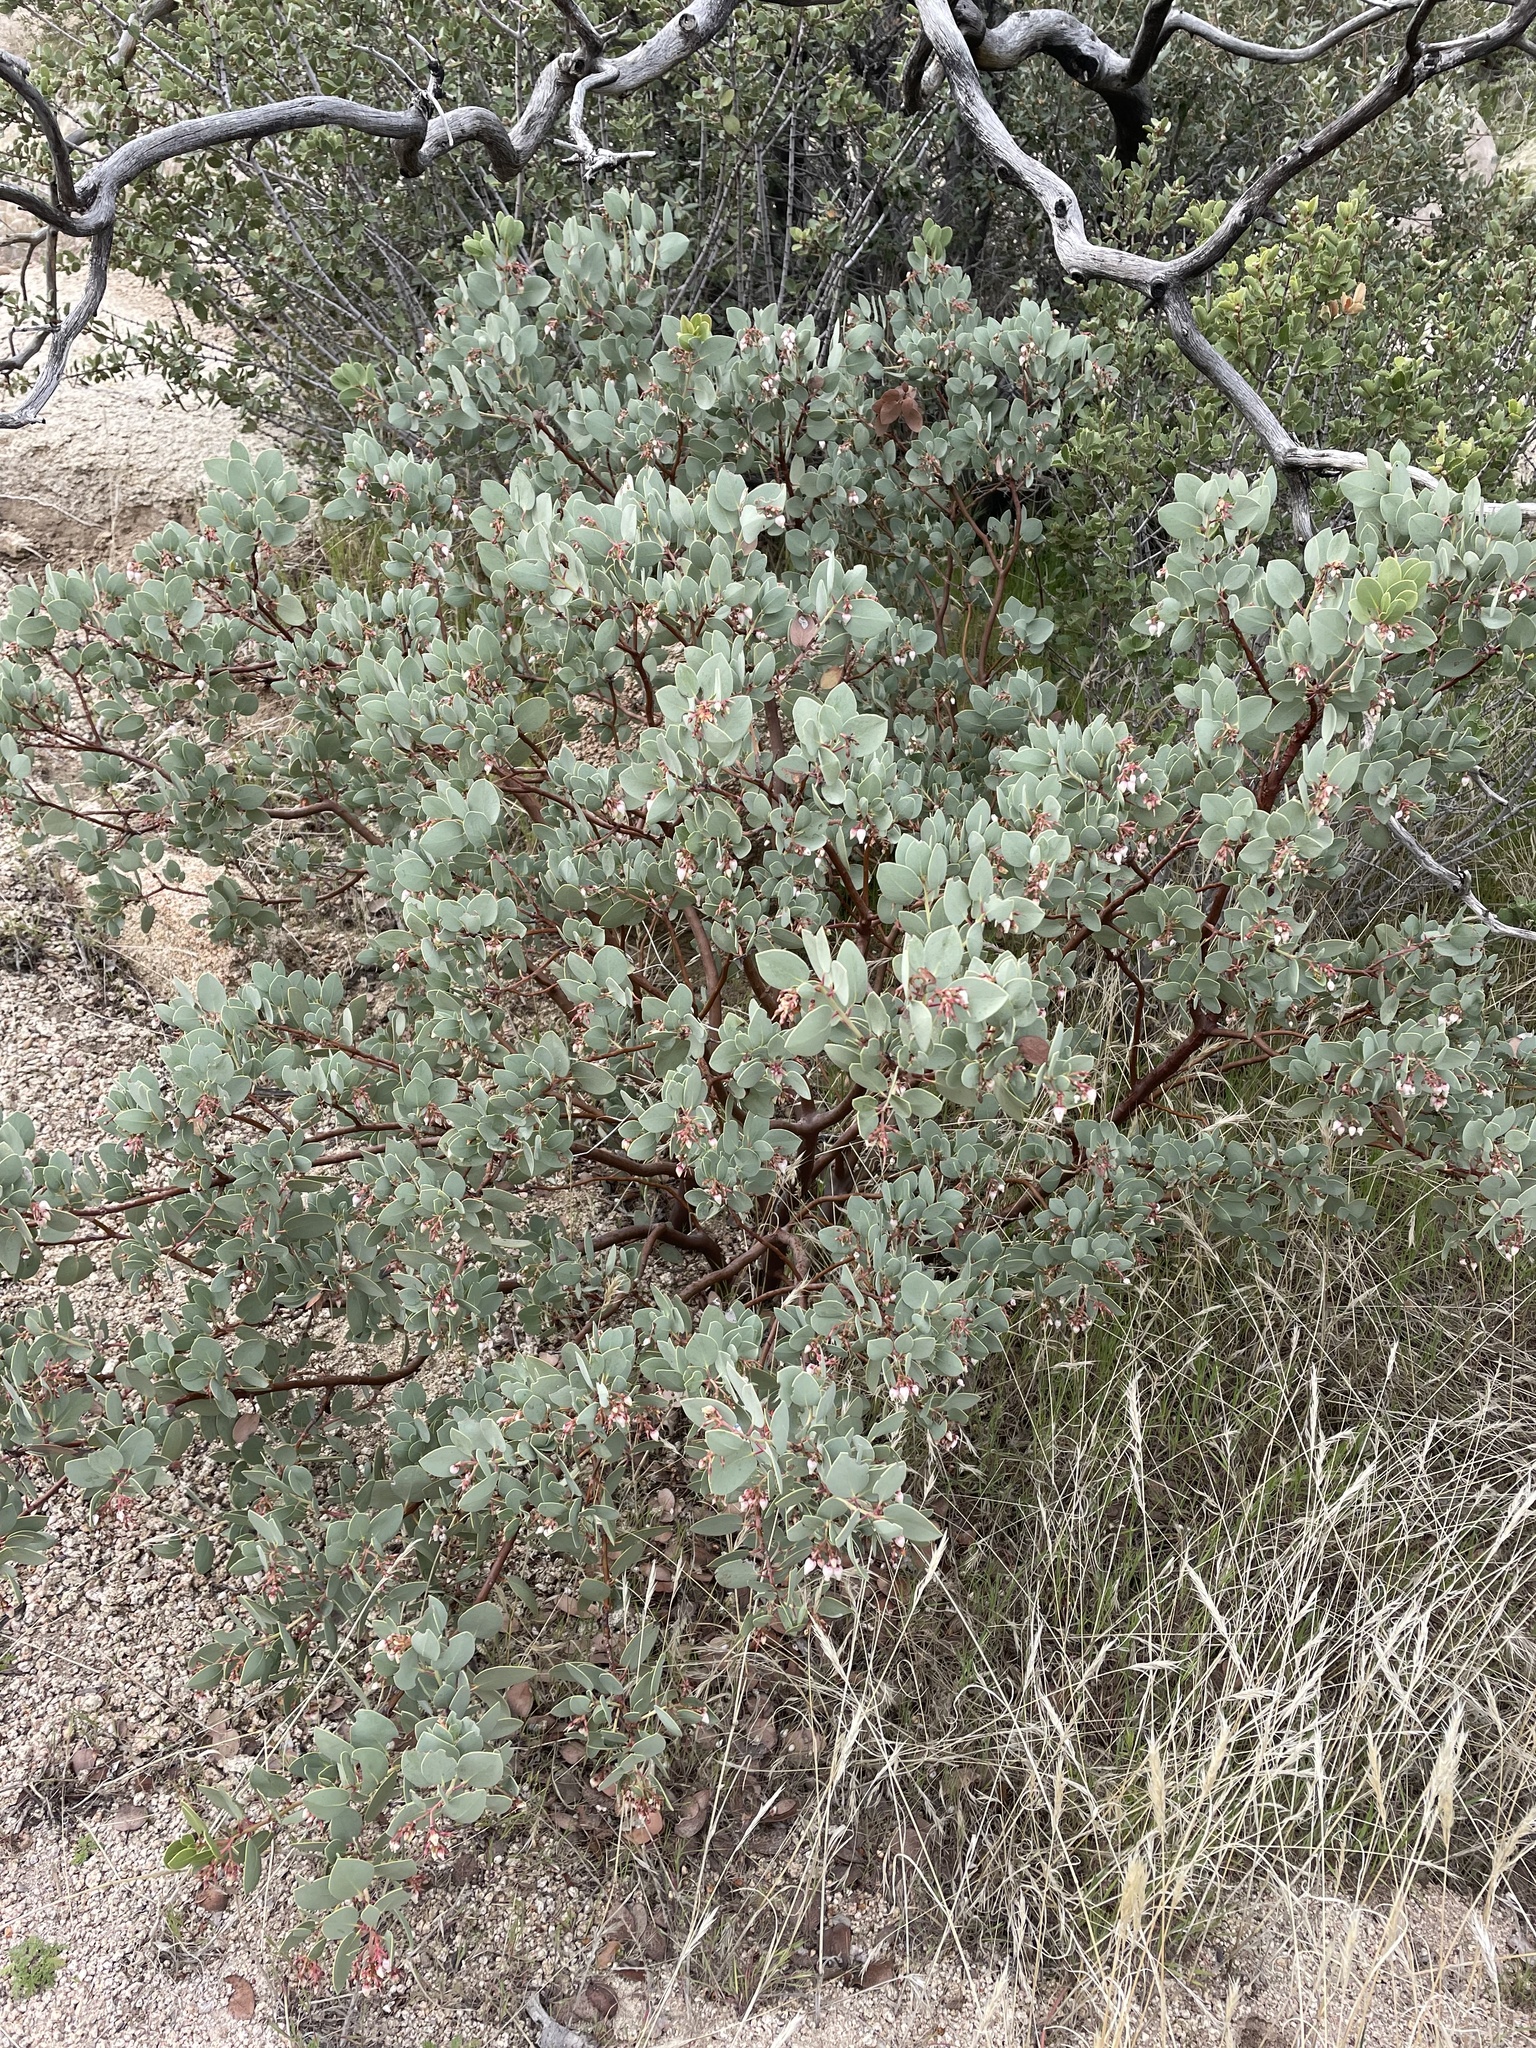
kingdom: Plantae
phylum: Tracheophyta
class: Magnoliopsida
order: Ericales
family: Ericaceae
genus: Arctostaphylos
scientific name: Arctostaphylos glauca
